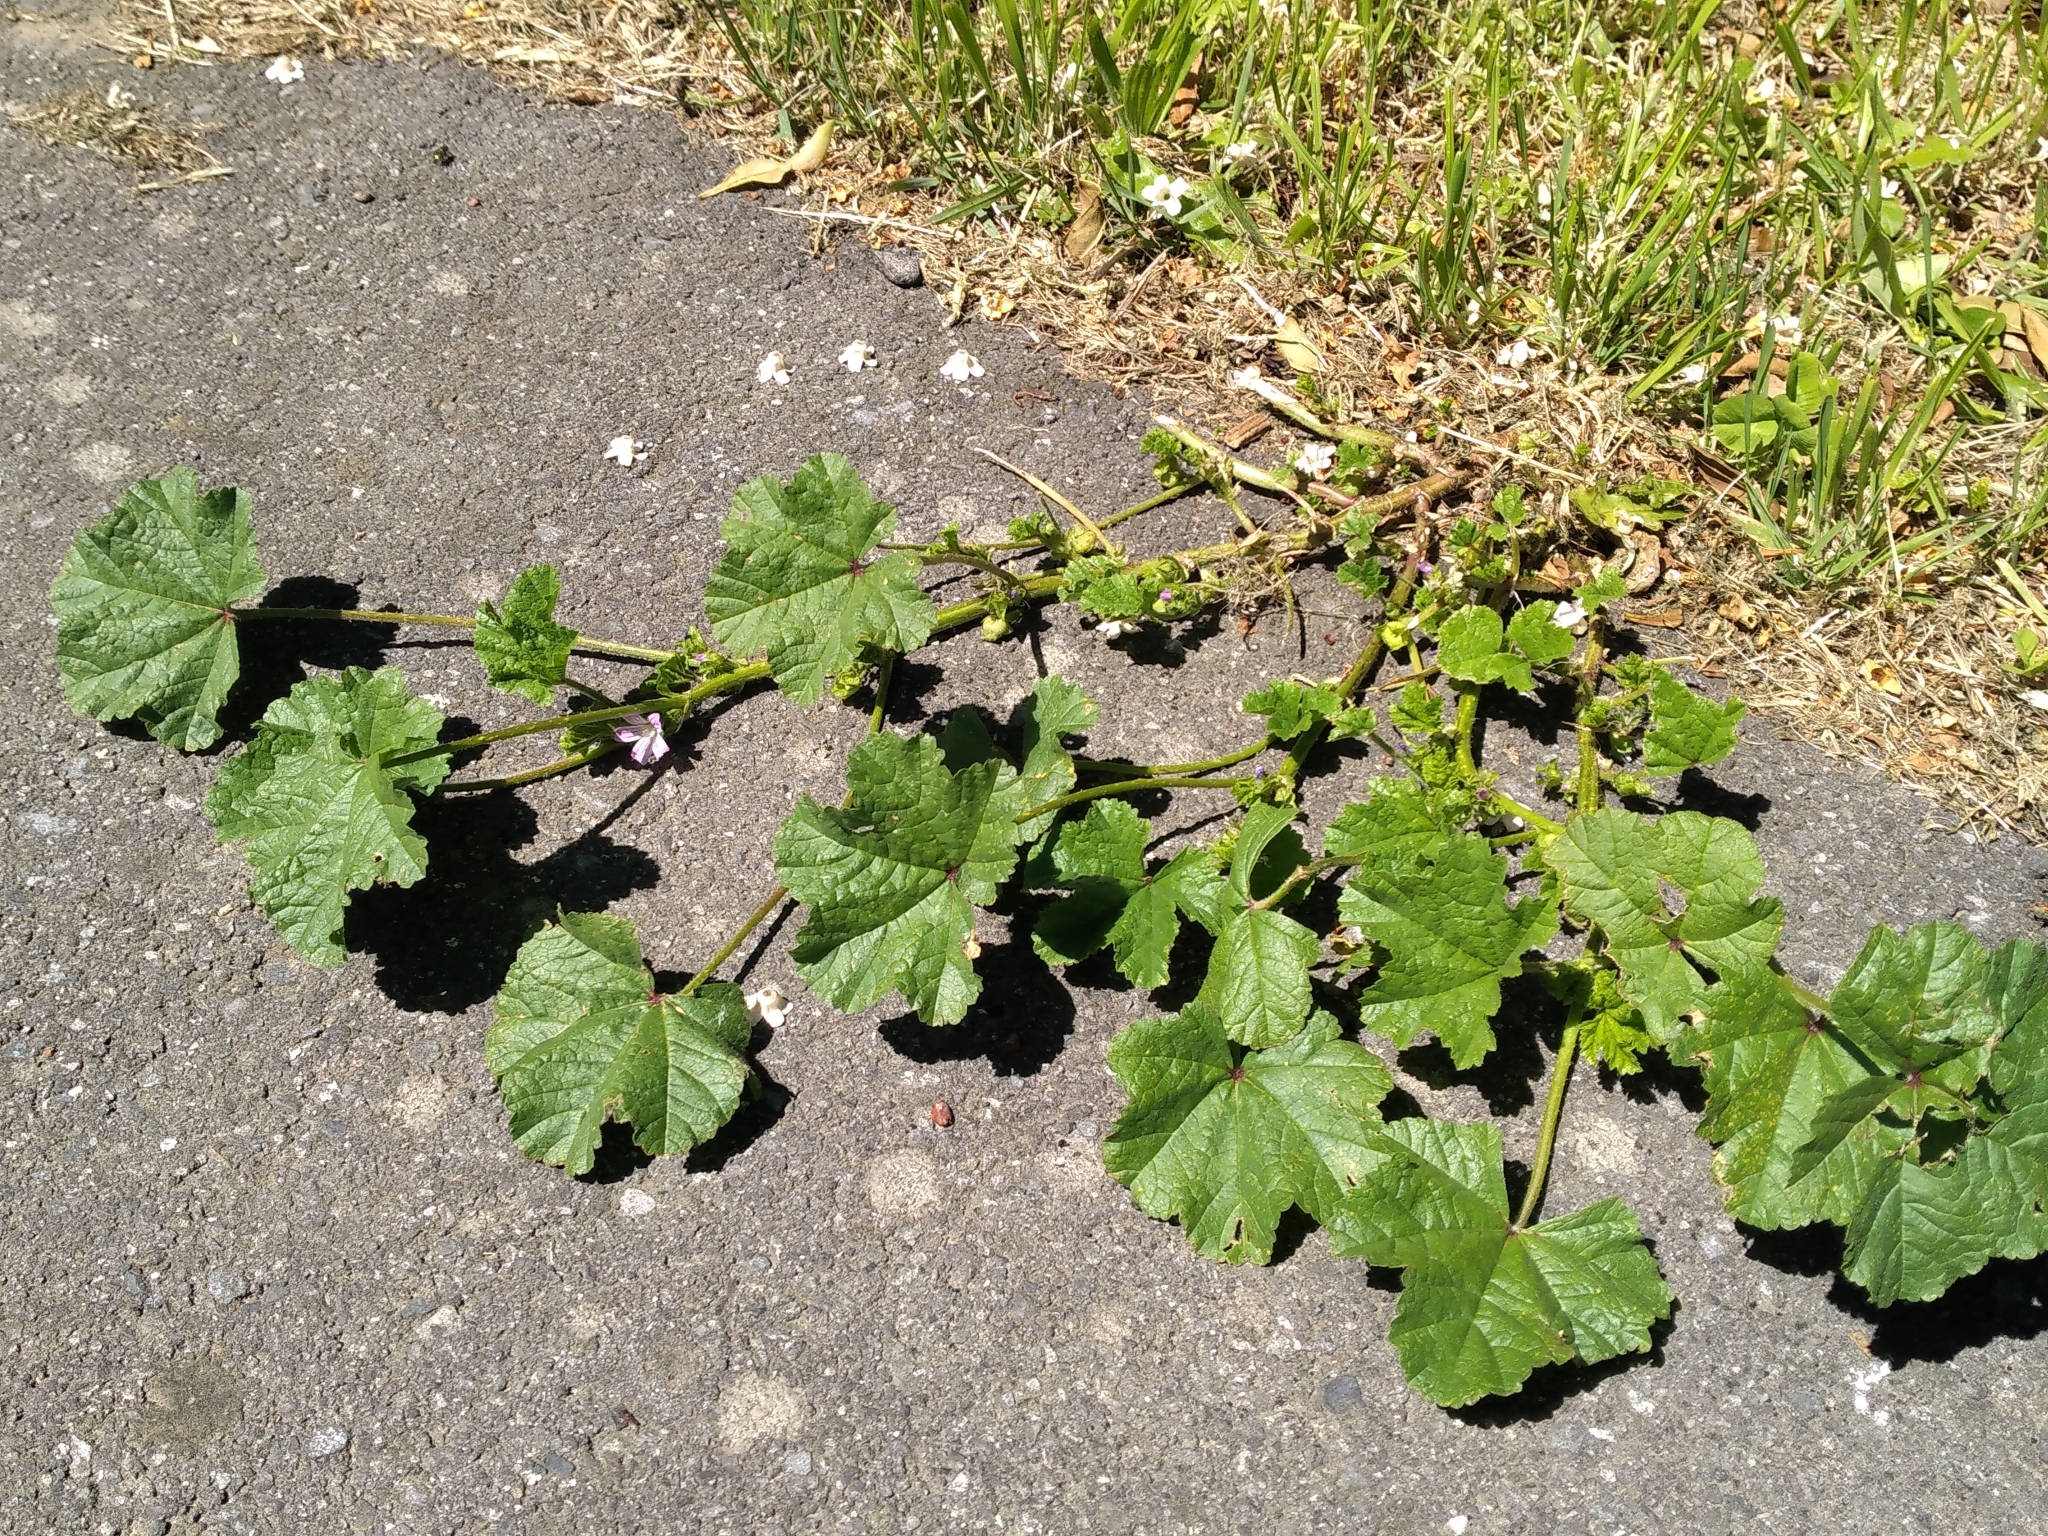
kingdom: Plantae
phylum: Tracheophyta
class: Magnoliopsida
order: Malvales
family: Malvaceae
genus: Malva
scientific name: Malva neglecta
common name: Common mallow
